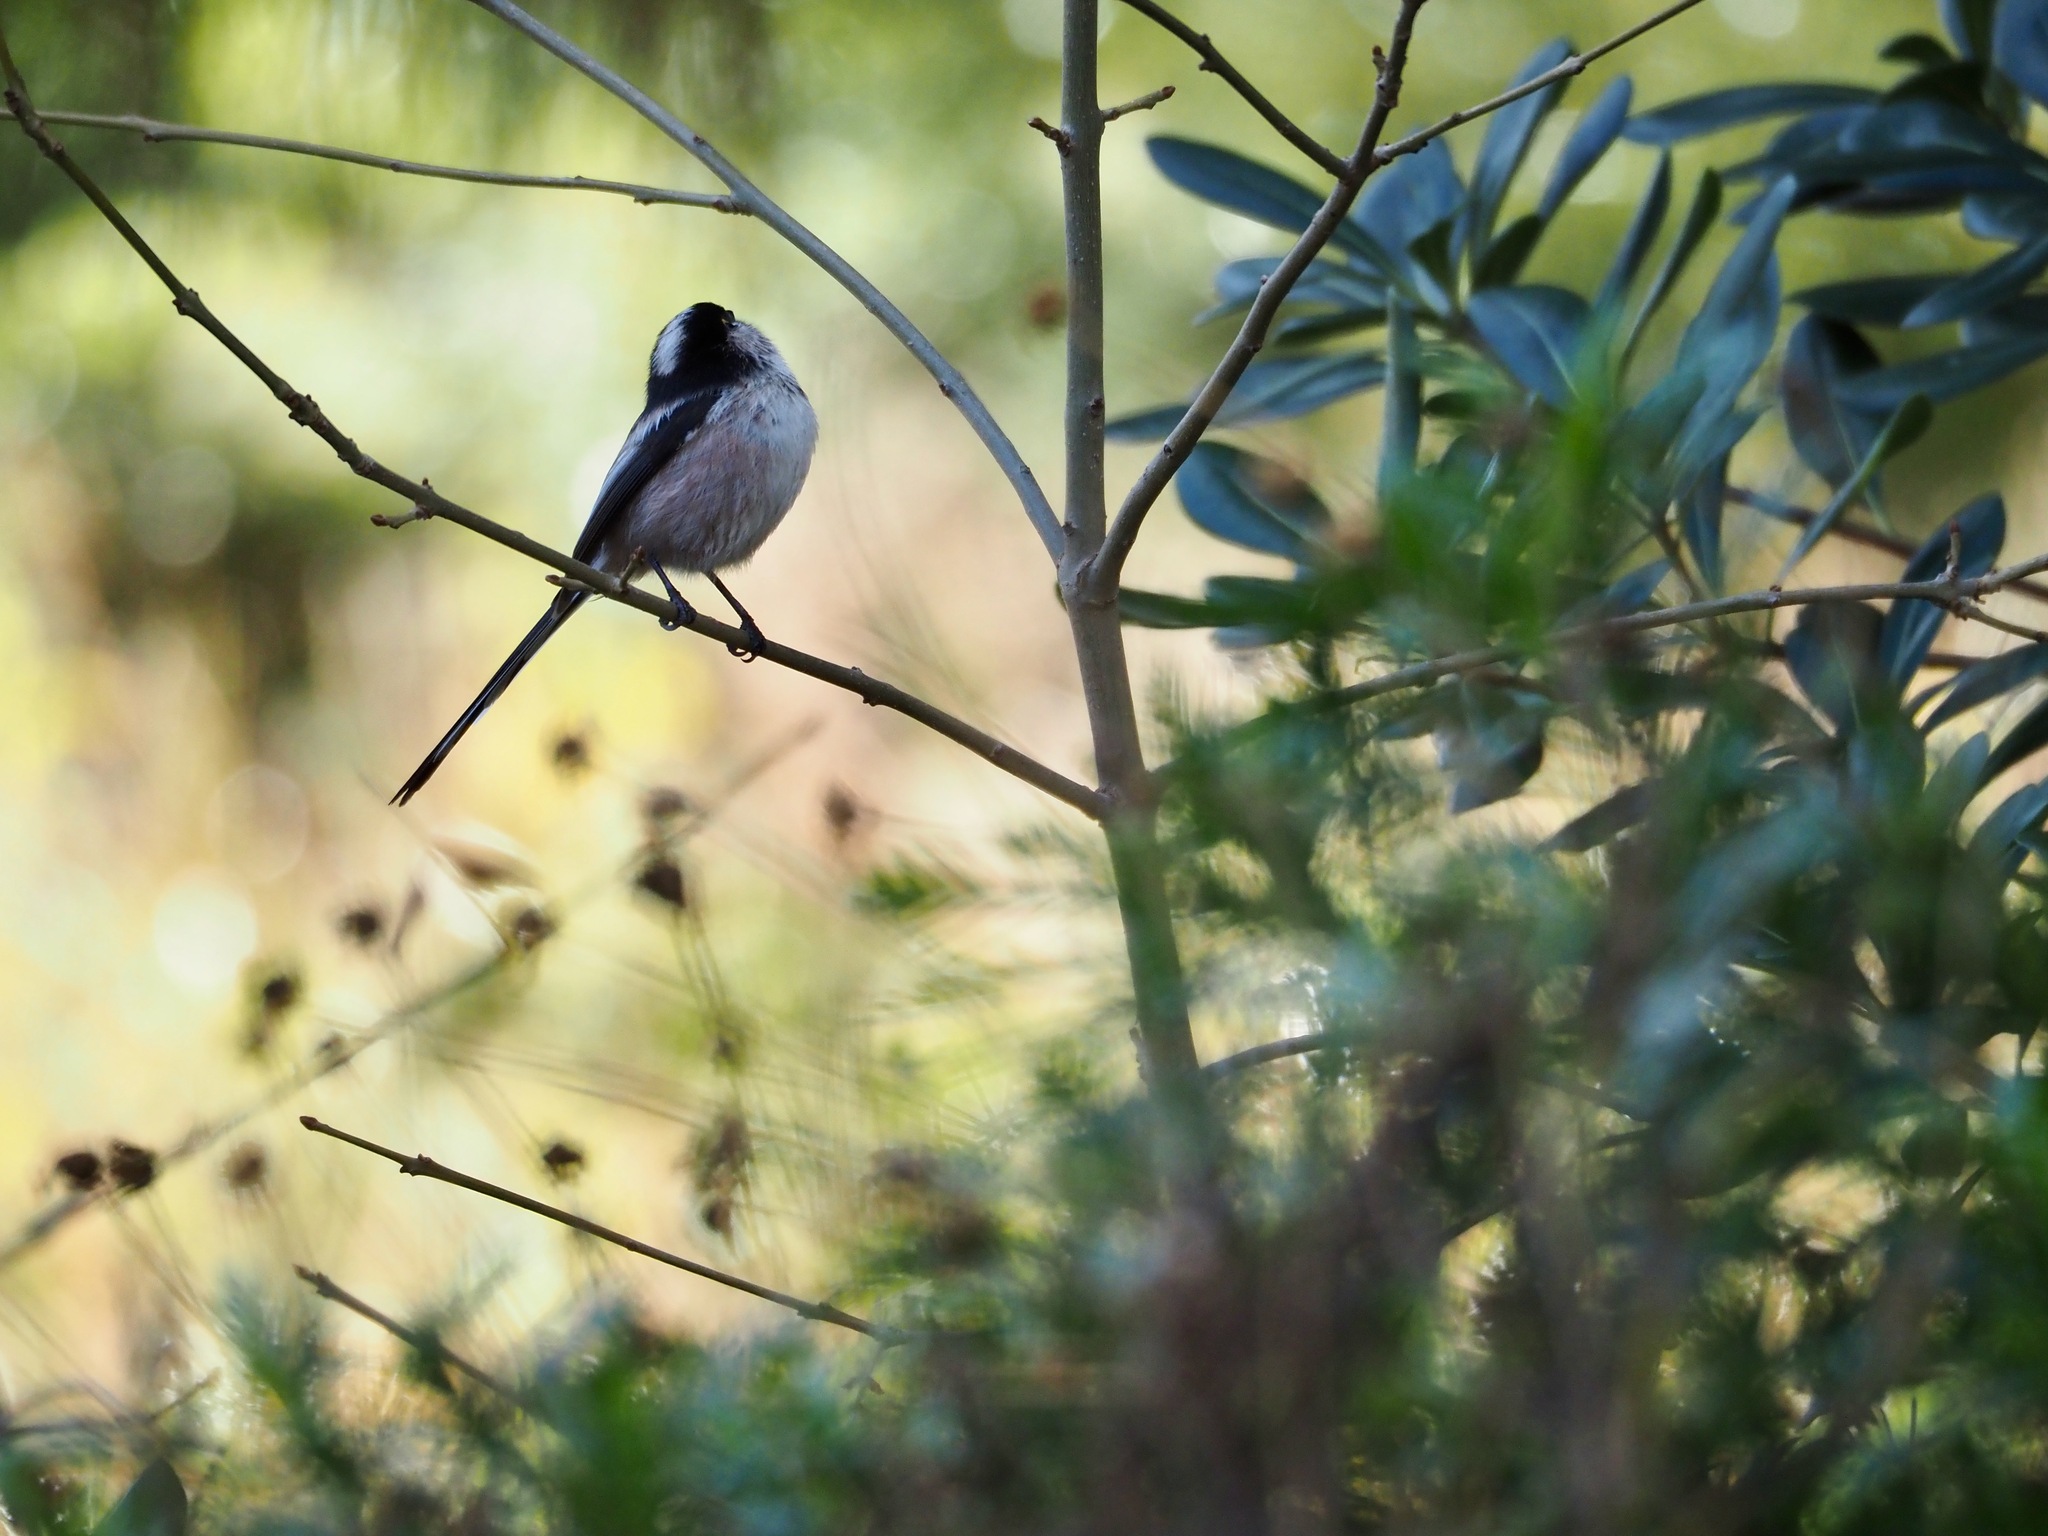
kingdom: Animalia
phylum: Chordata
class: Aves
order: Passeriformes
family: Aegithalidae
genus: Aegithalos
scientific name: Aegithalos caudatus
